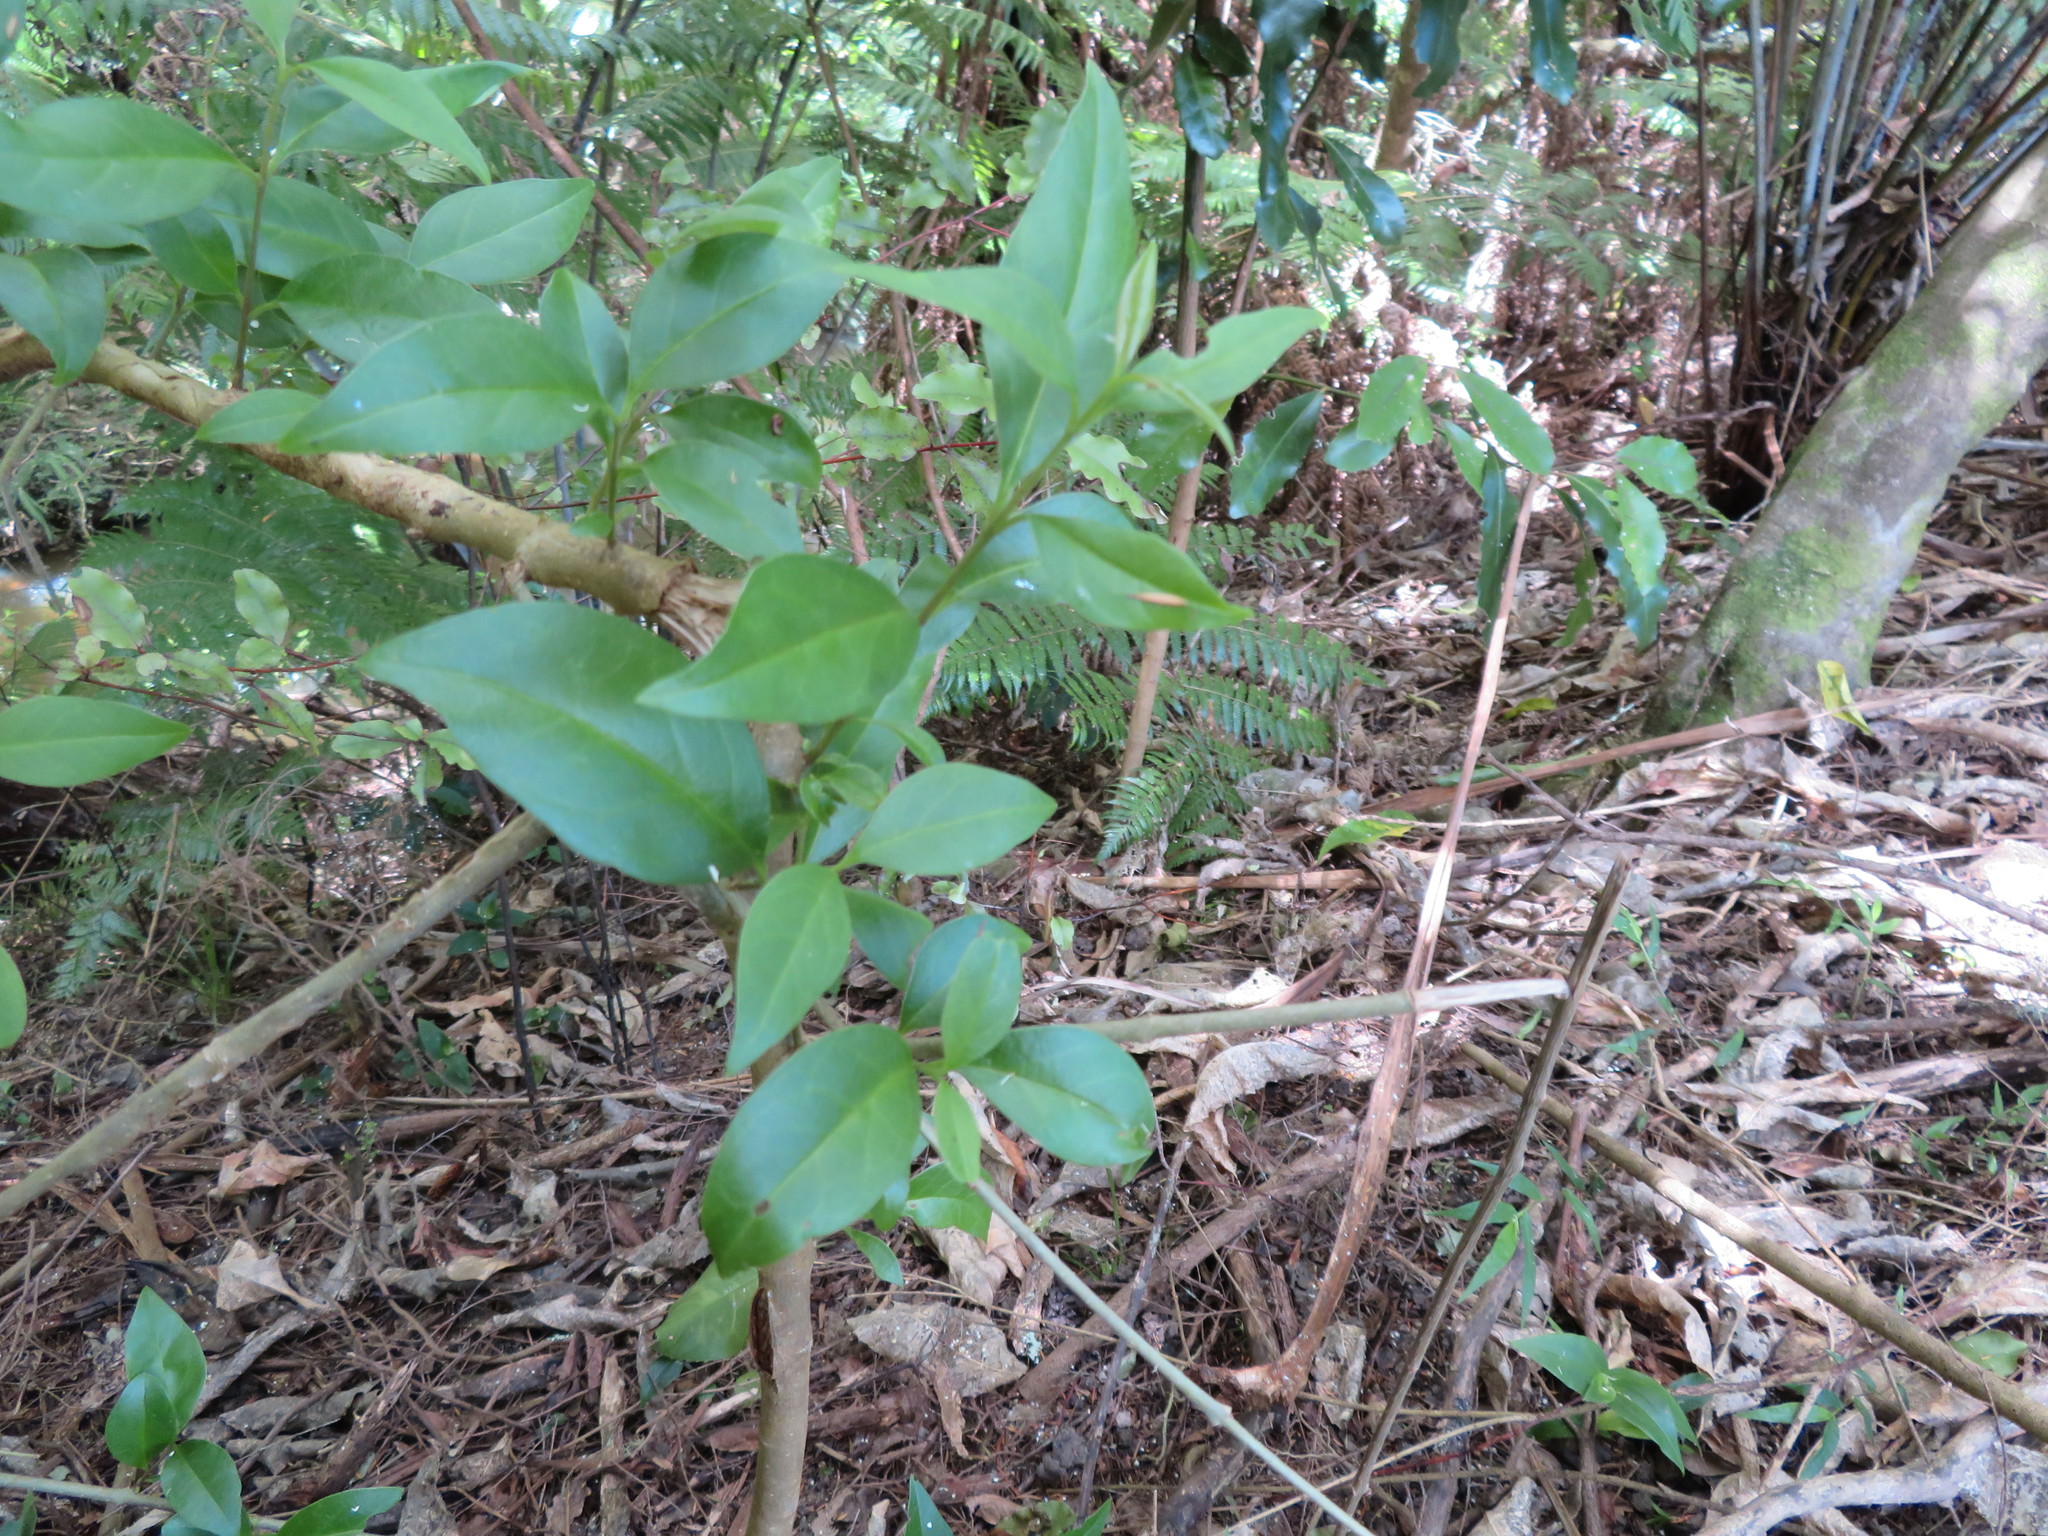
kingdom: Plantae
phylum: Tracheophyta
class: Magnoliopsida
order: Lamiales
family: Oleaceae
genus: Ligustrum
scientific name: Ligustrum lucidum
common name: Glossy privet
